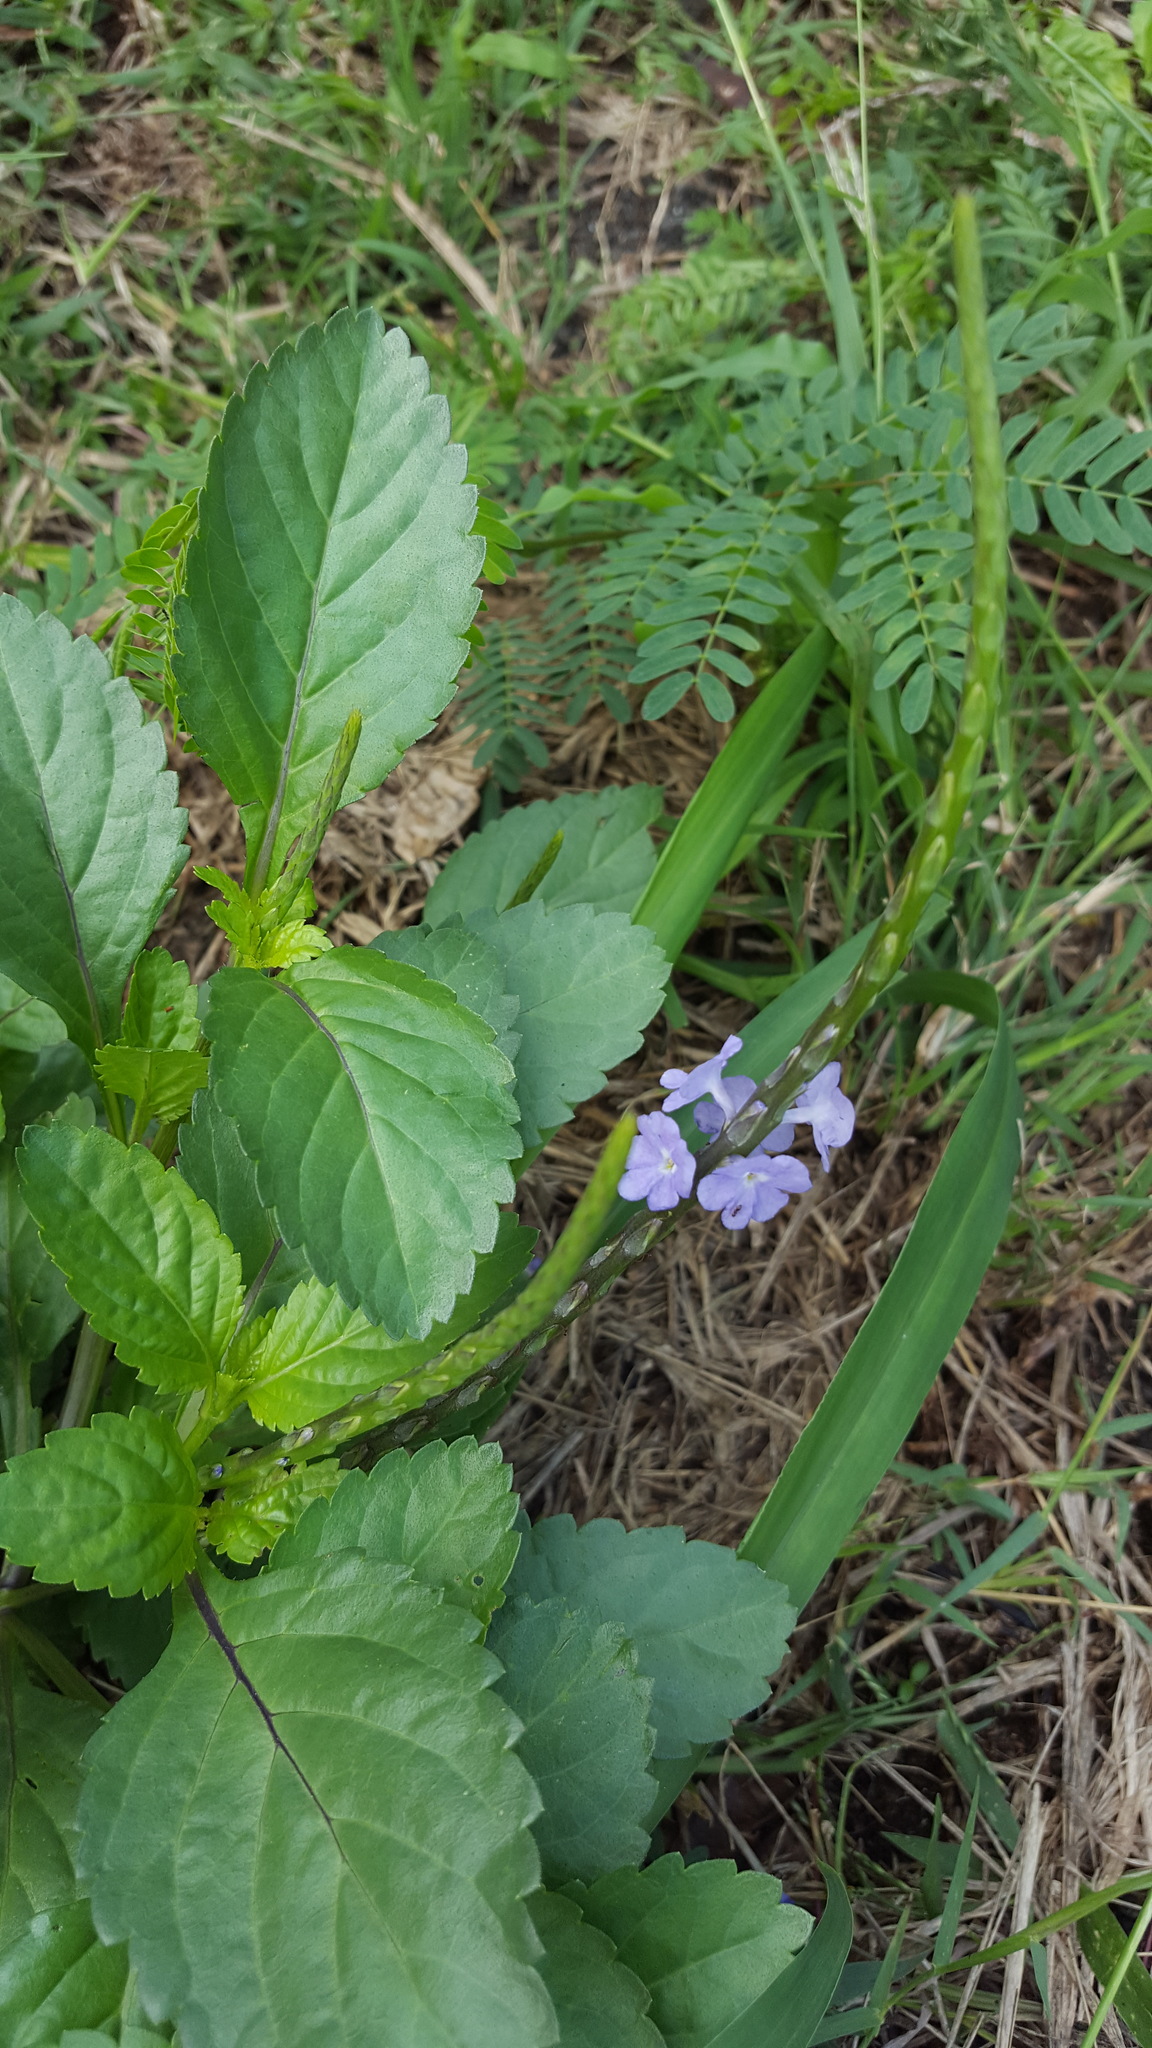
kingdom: Plantae
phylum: Tracheophyta
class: Magnoliopsida
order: Lamiales
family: Verbenaceae
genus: Stachytarpheta
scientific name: Stachytarpheta jamaicensis
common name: Light-blue snakeweed
